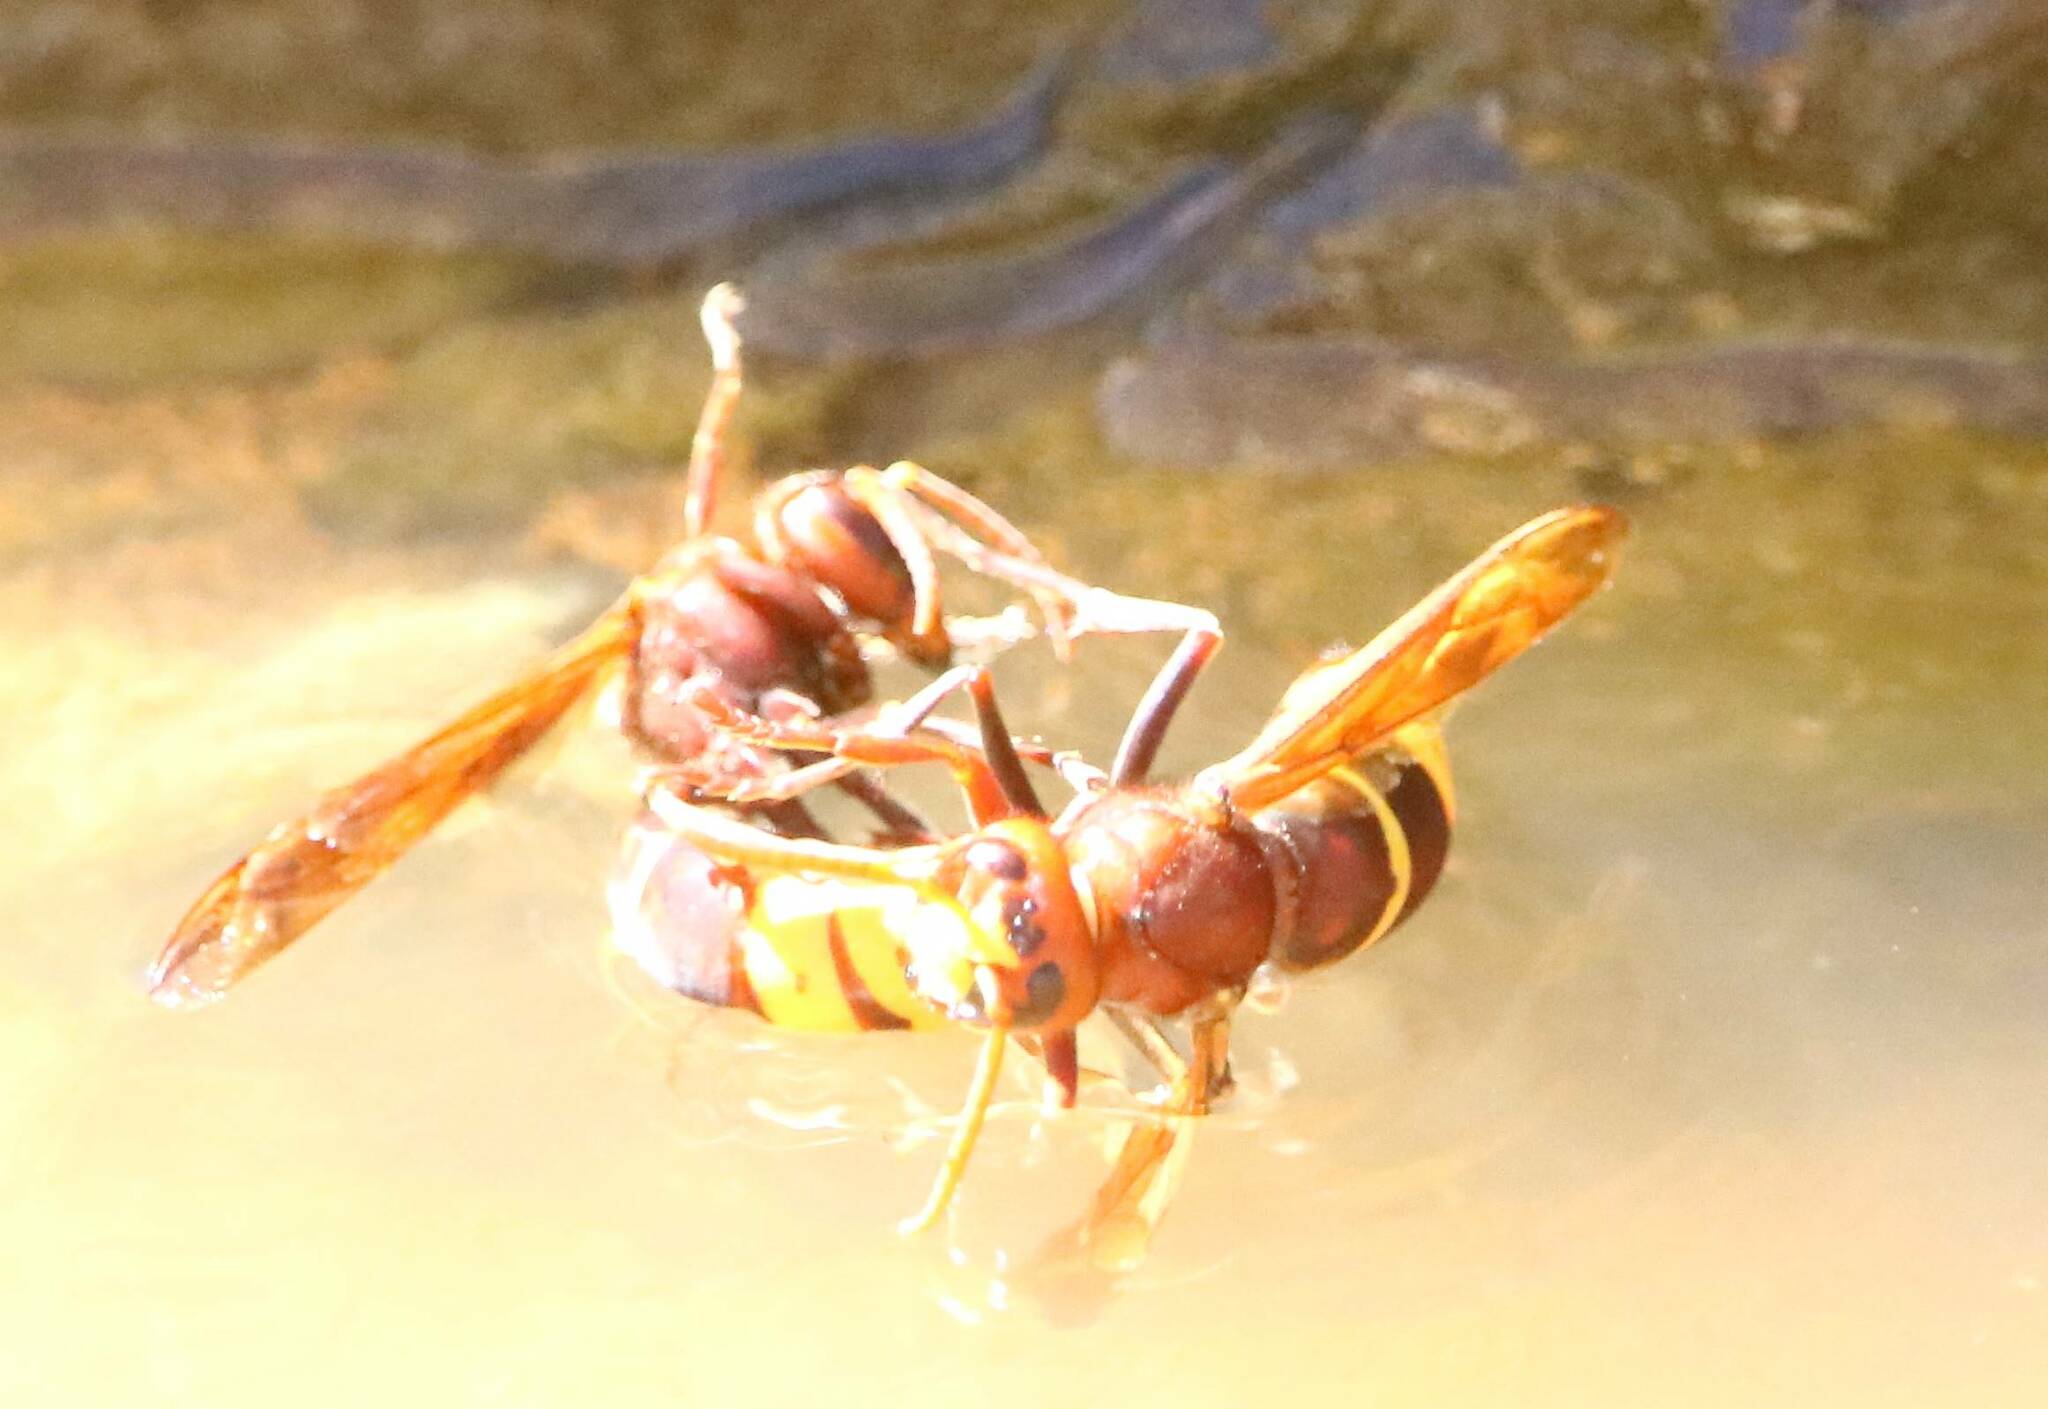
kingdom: Animalia
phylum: Arthropoda
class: Insecta
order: Hymenoptera
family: Vespidae
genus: Vespa
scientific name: Vespa orientalis
